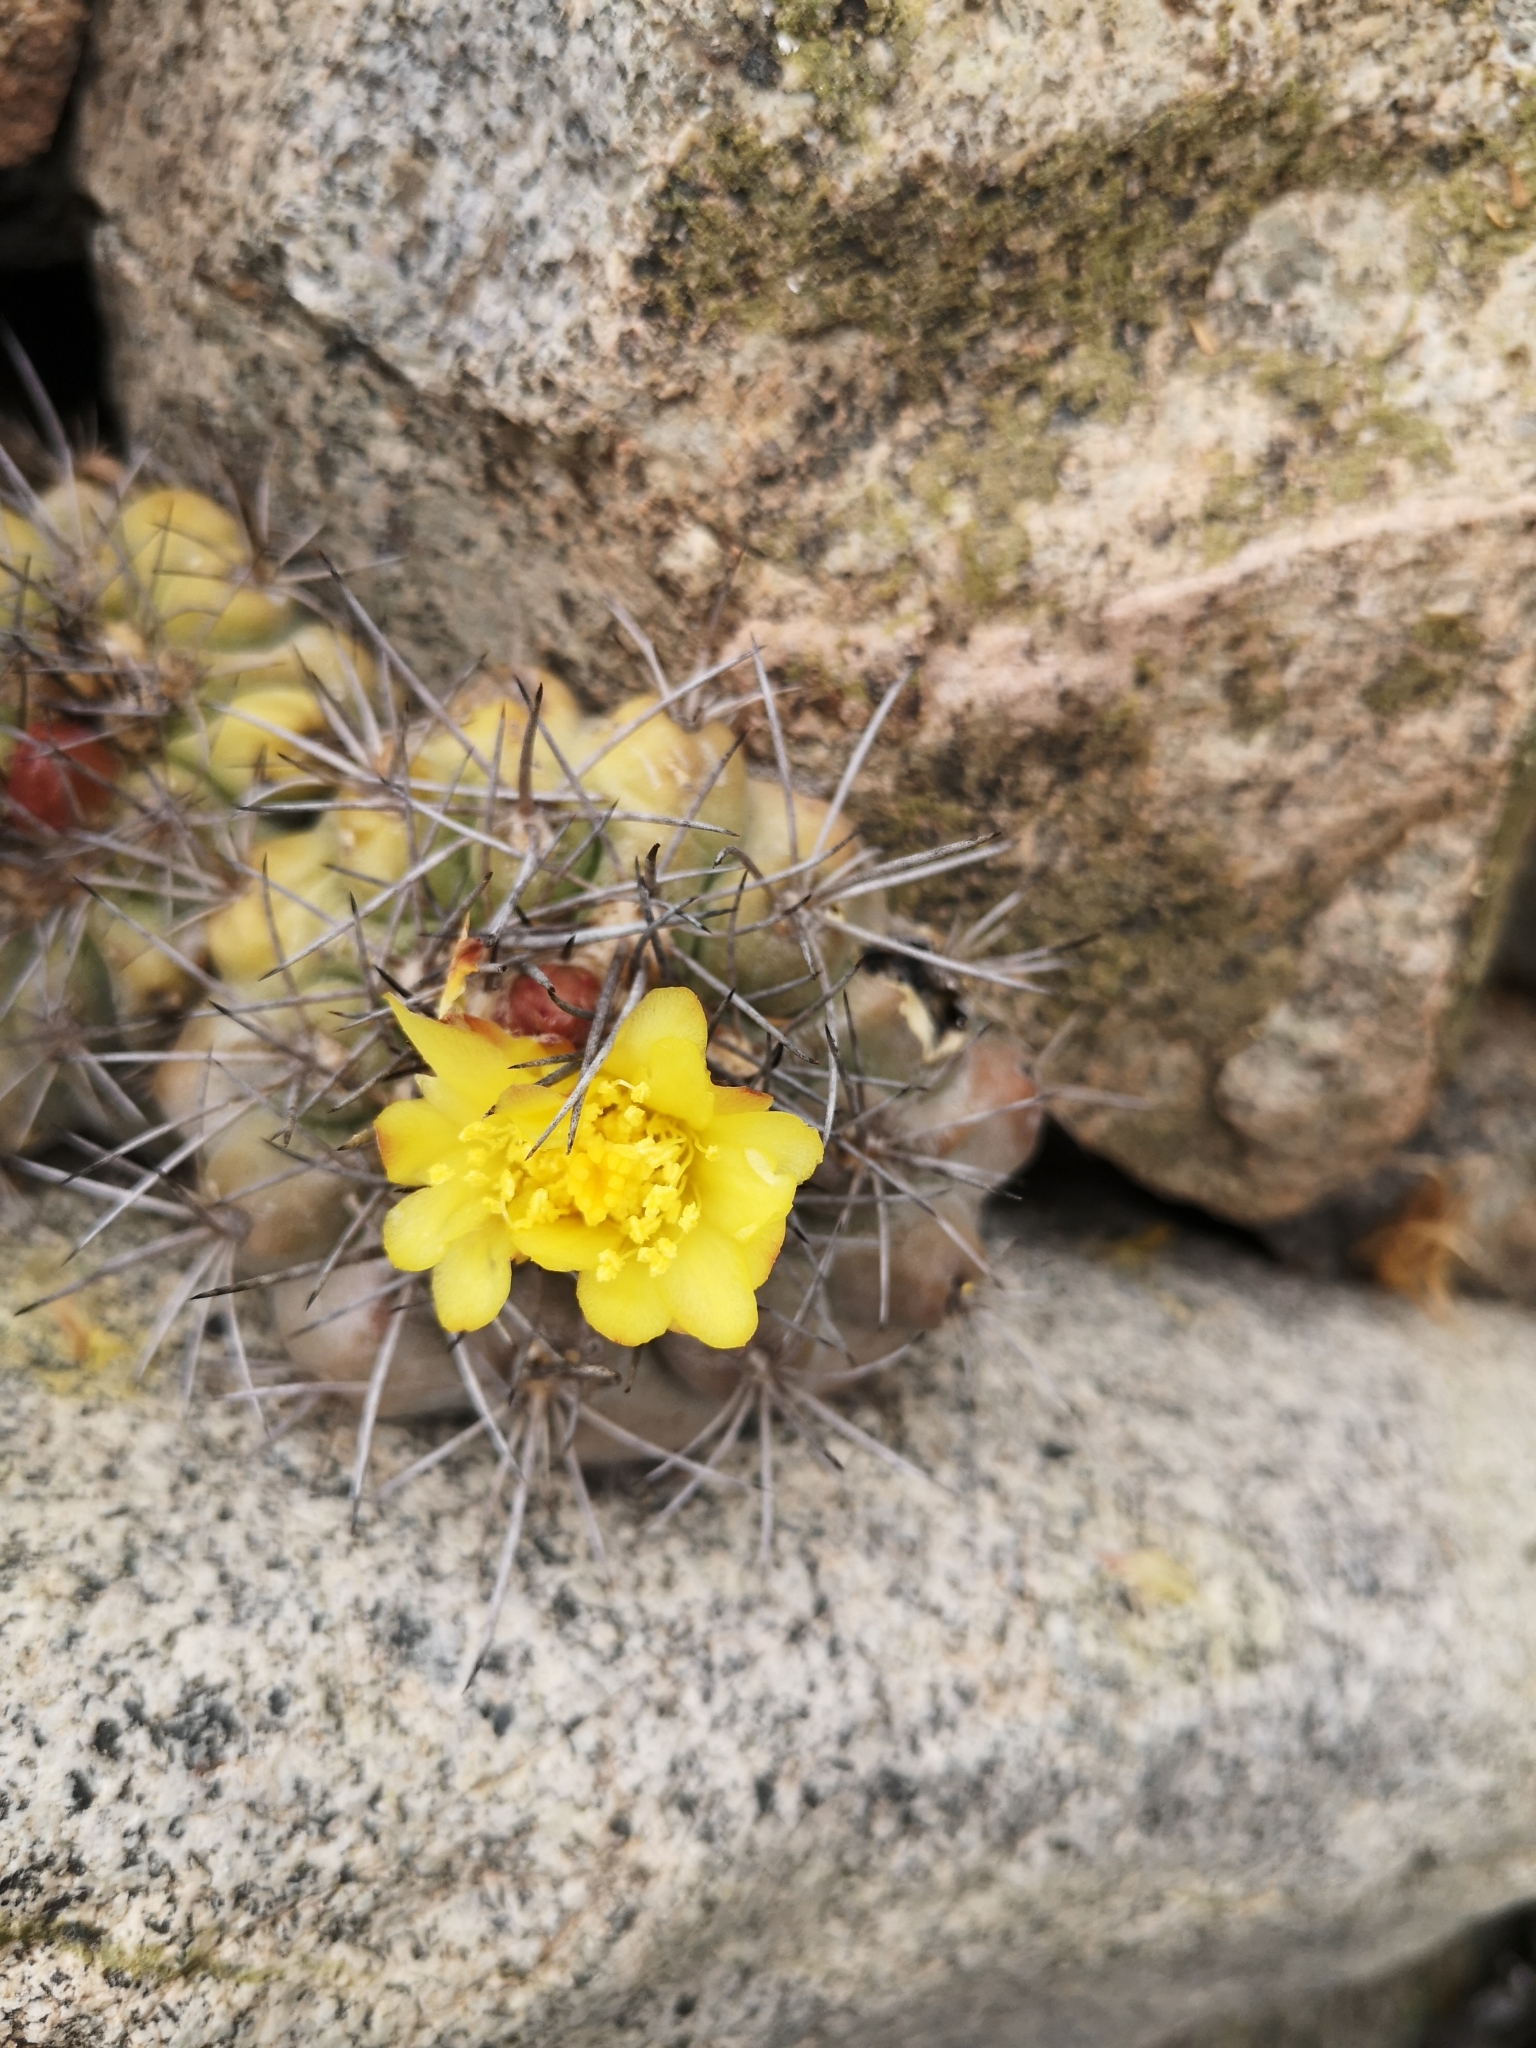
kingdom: Plantae
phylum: Tracheophyta
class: Magnoliopsida
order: Caryophyllales
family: Cactaceae
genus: Copiapoa
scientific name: Copiapoa humilis
